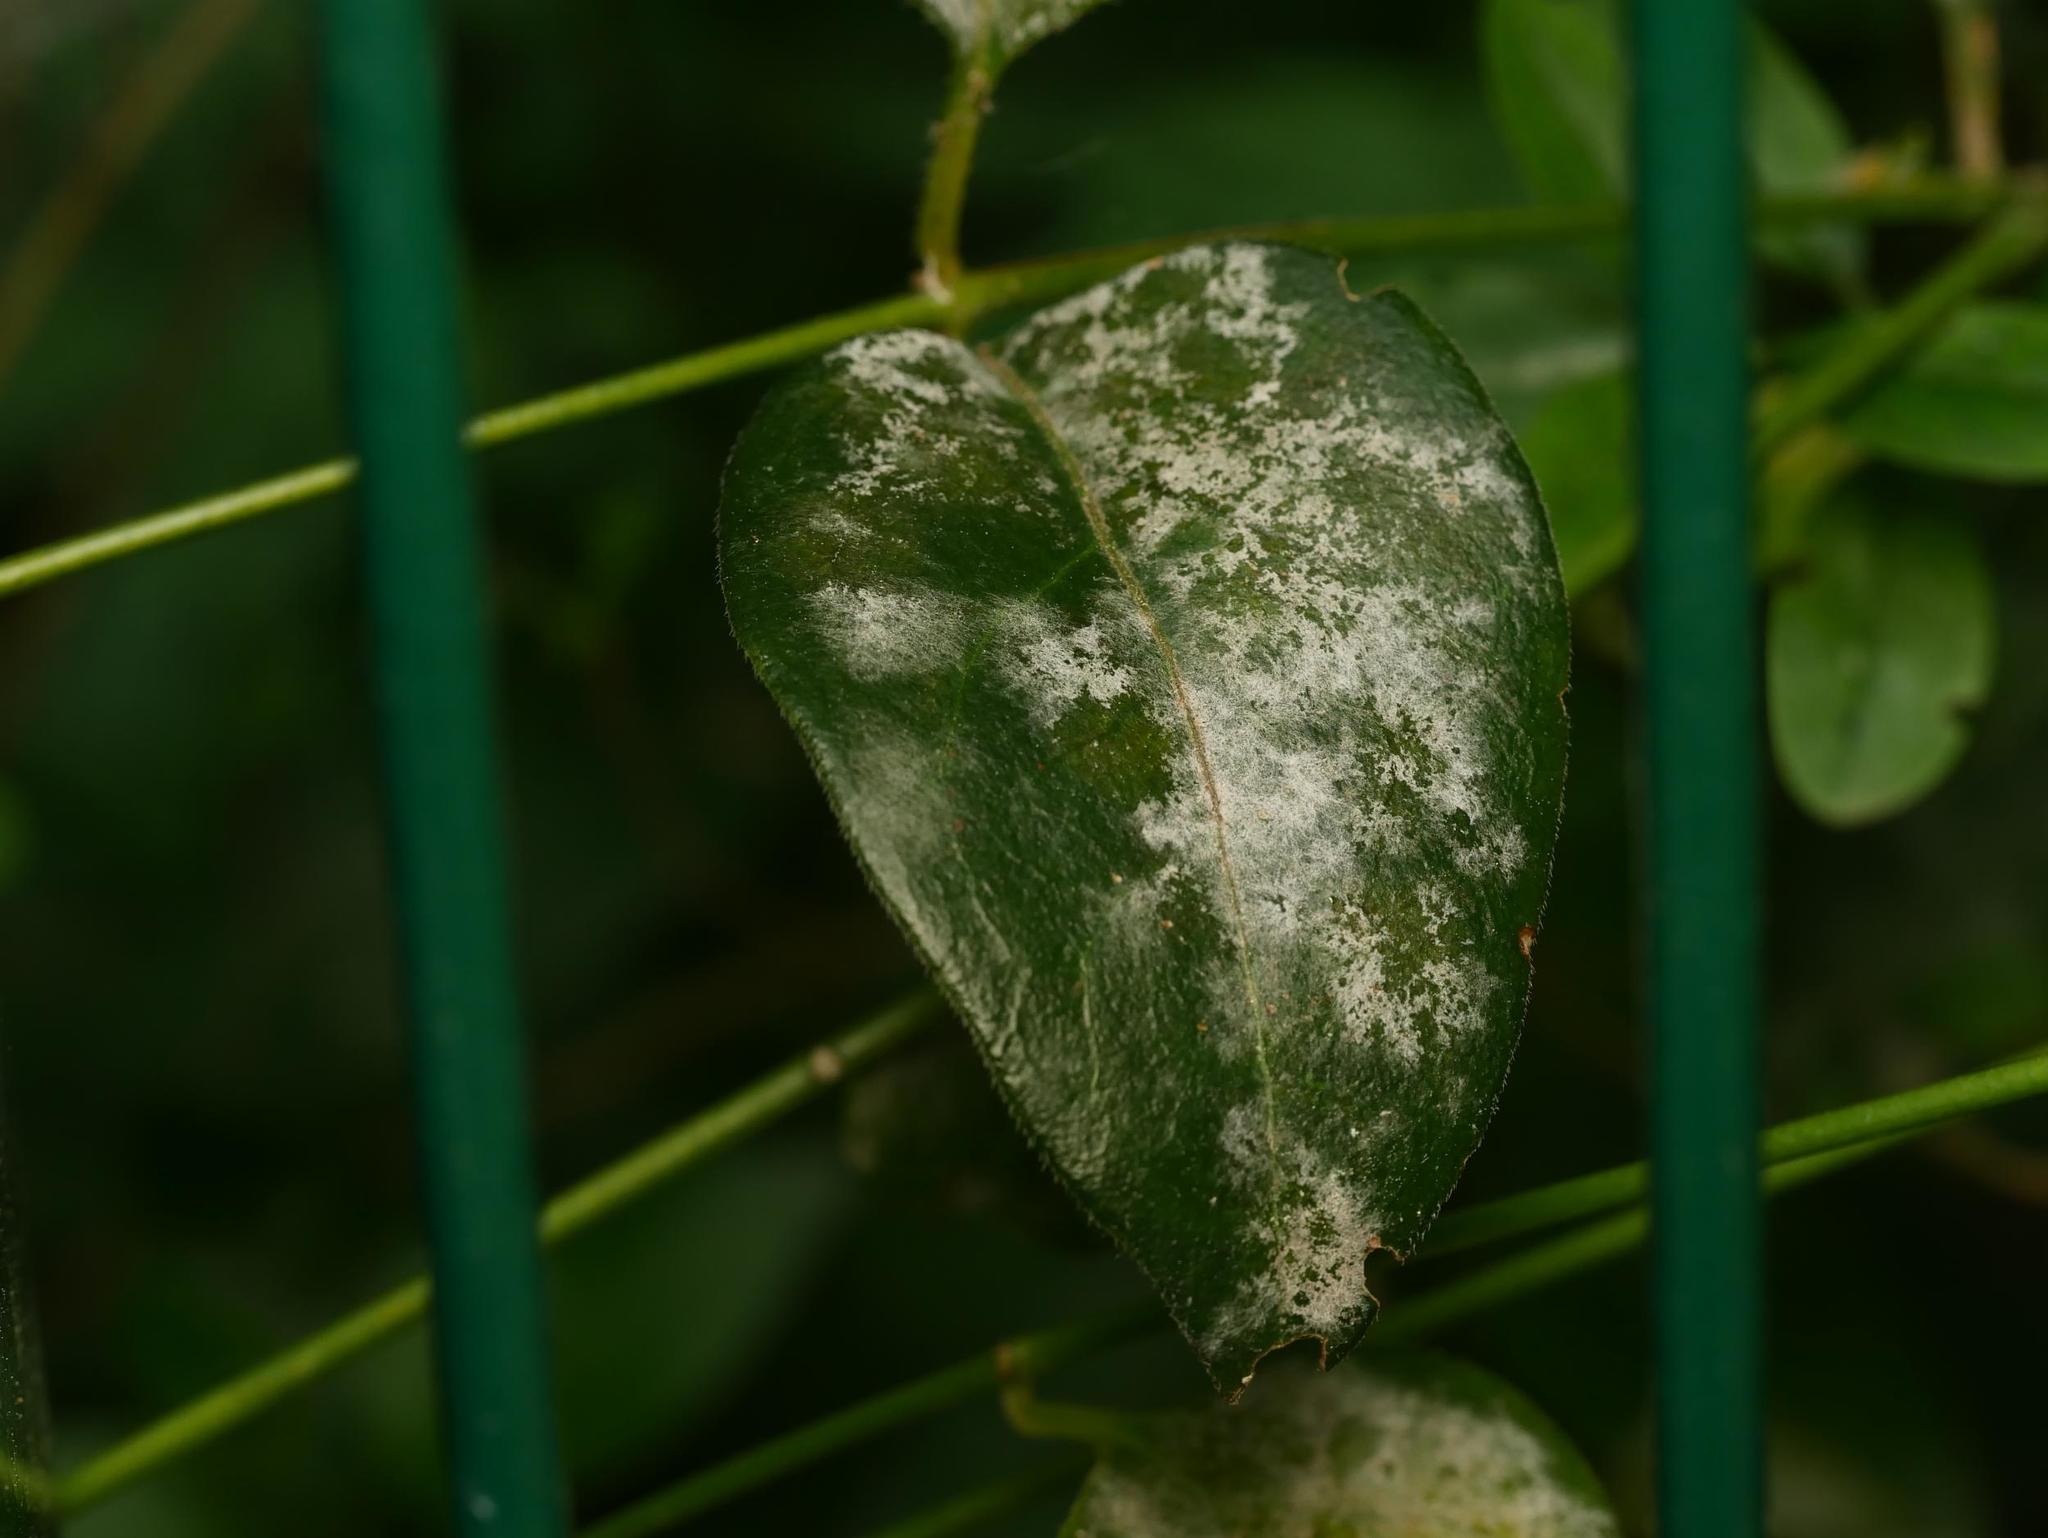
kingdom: Fungi
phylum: Ascomycota
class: Leotiomycetes
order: Helotiales
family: Erysiphaceae
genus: Golovinomyces
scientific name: Golovinomyces vincae
